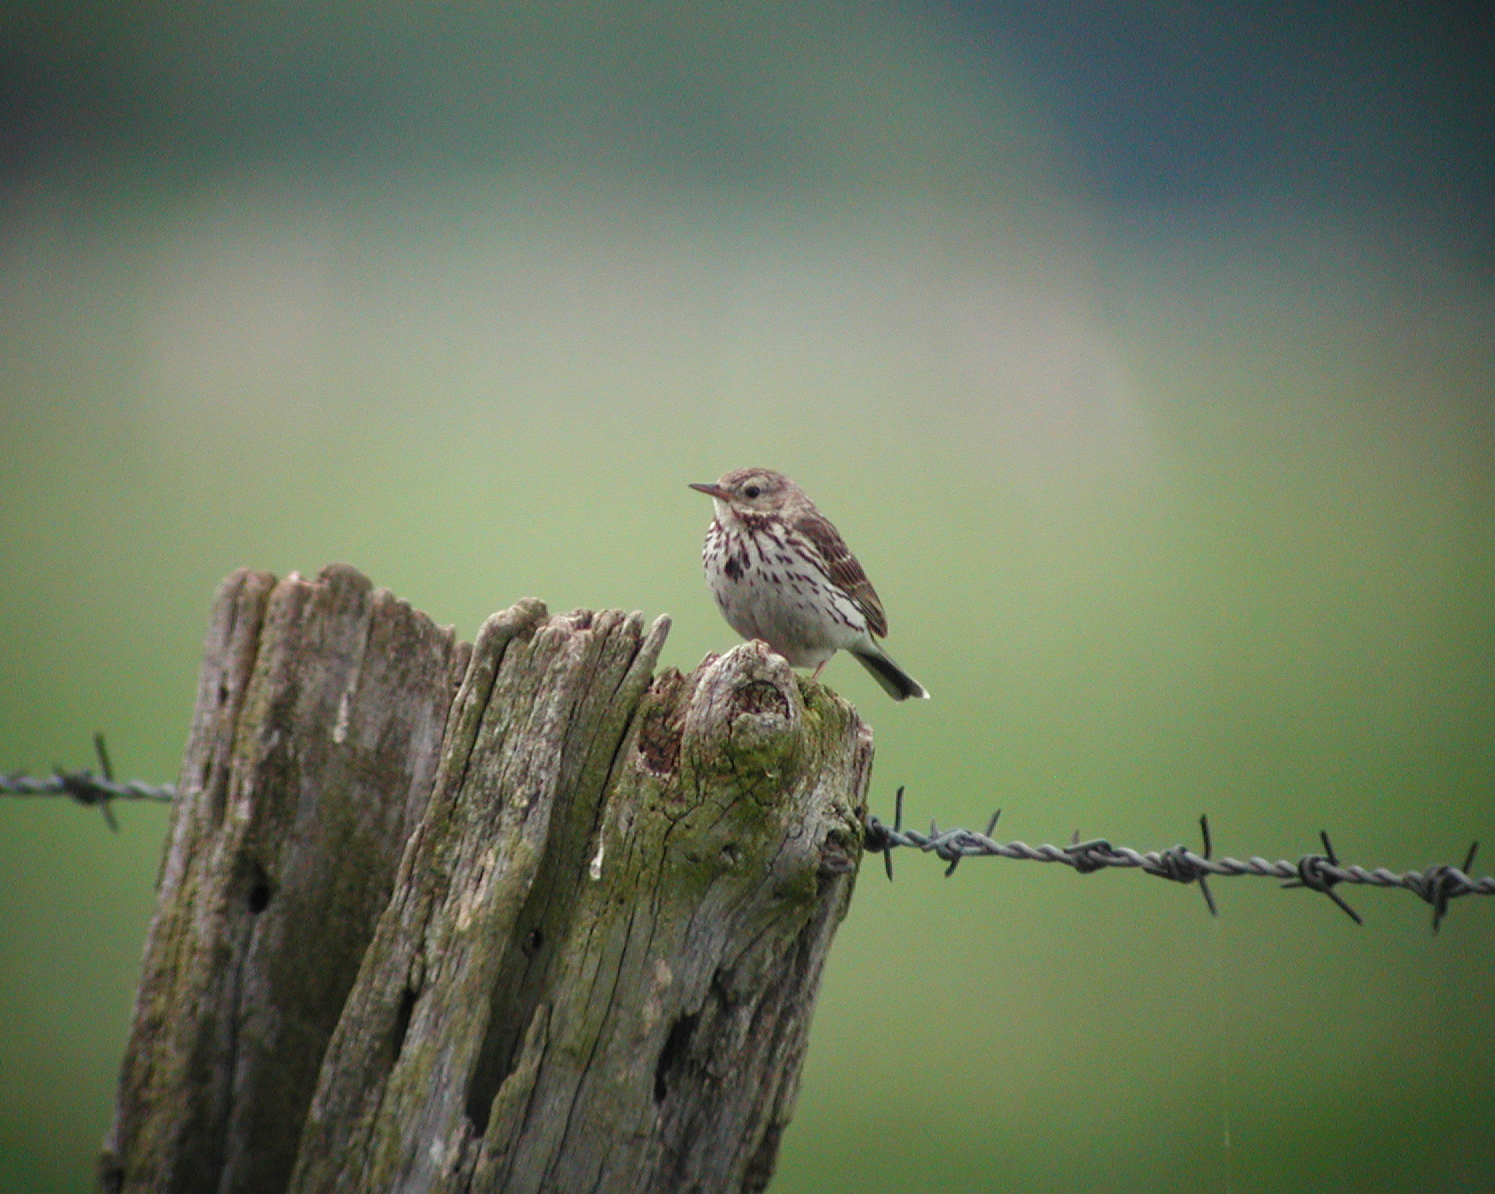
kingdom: Animalia
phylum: Chordata
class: Aves
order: Passeriformes
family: Motacillidae
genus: Anthus
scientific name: Anthus pratensis
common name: Meadow pipit
